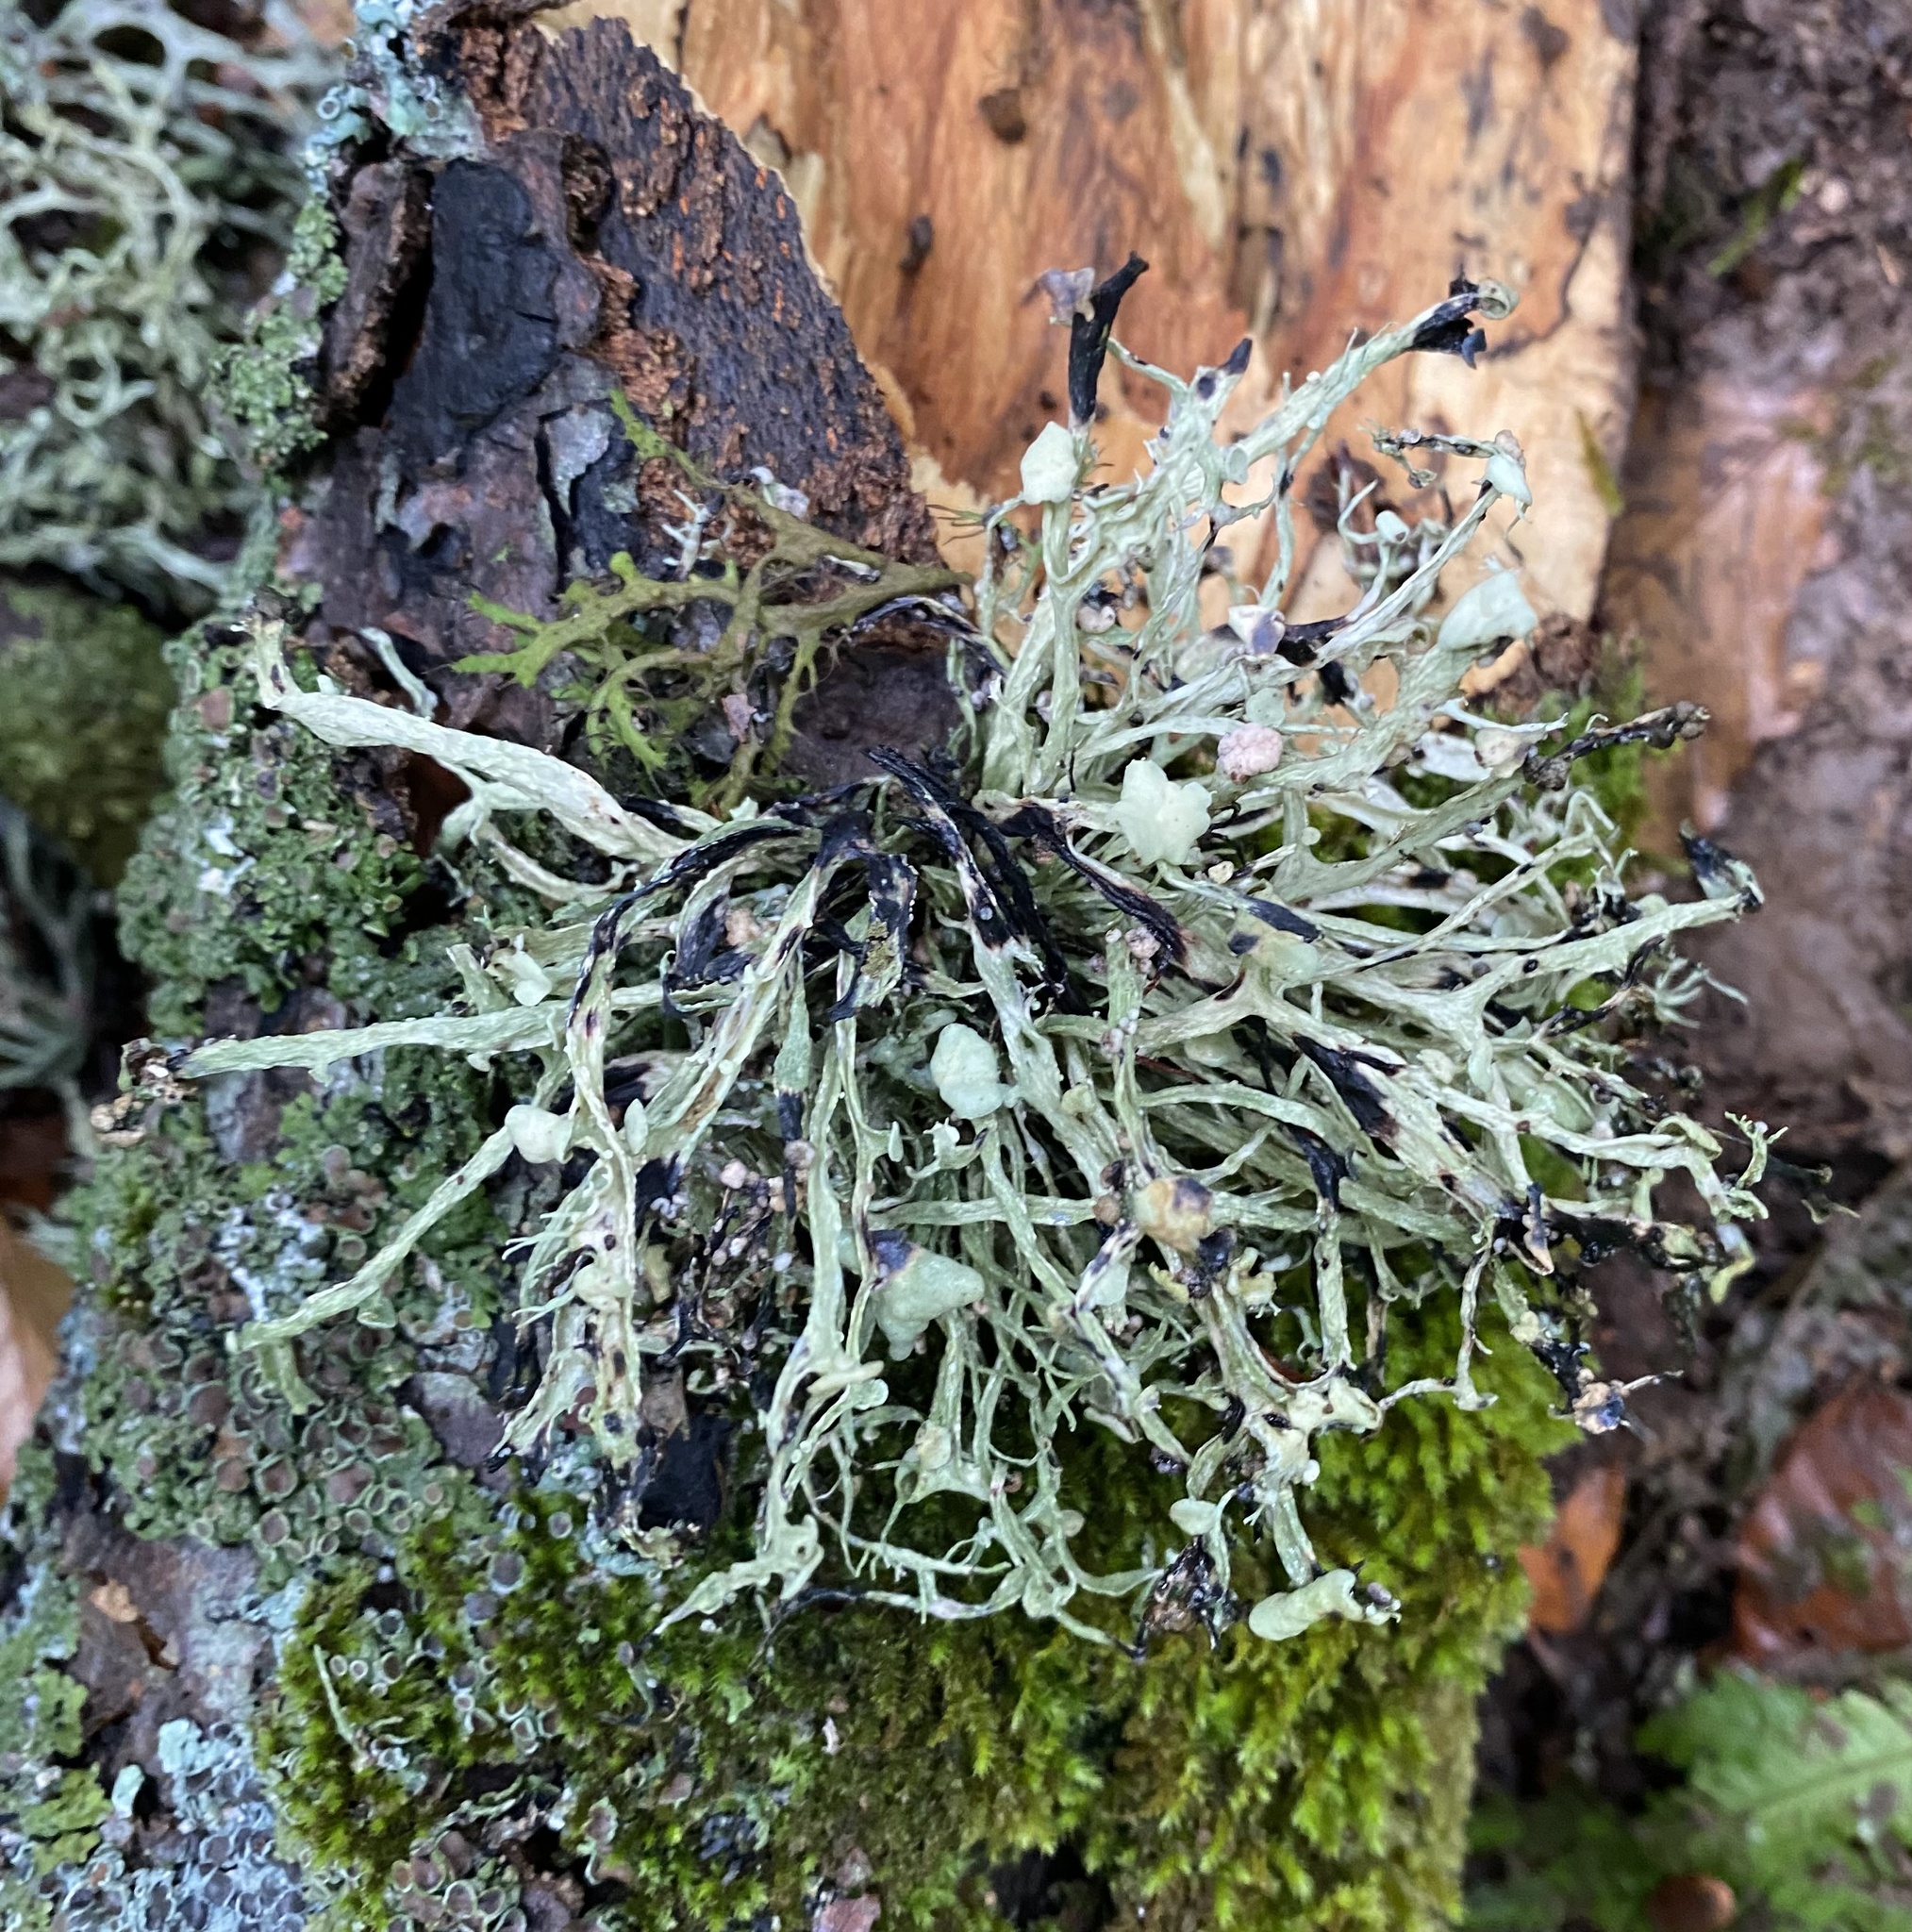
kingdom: Fungi
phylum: Ascomycota
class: Lecanoromycetes
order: Lecanorales
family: Ramalinaceae
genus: Ramalina
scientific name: Ramalina
